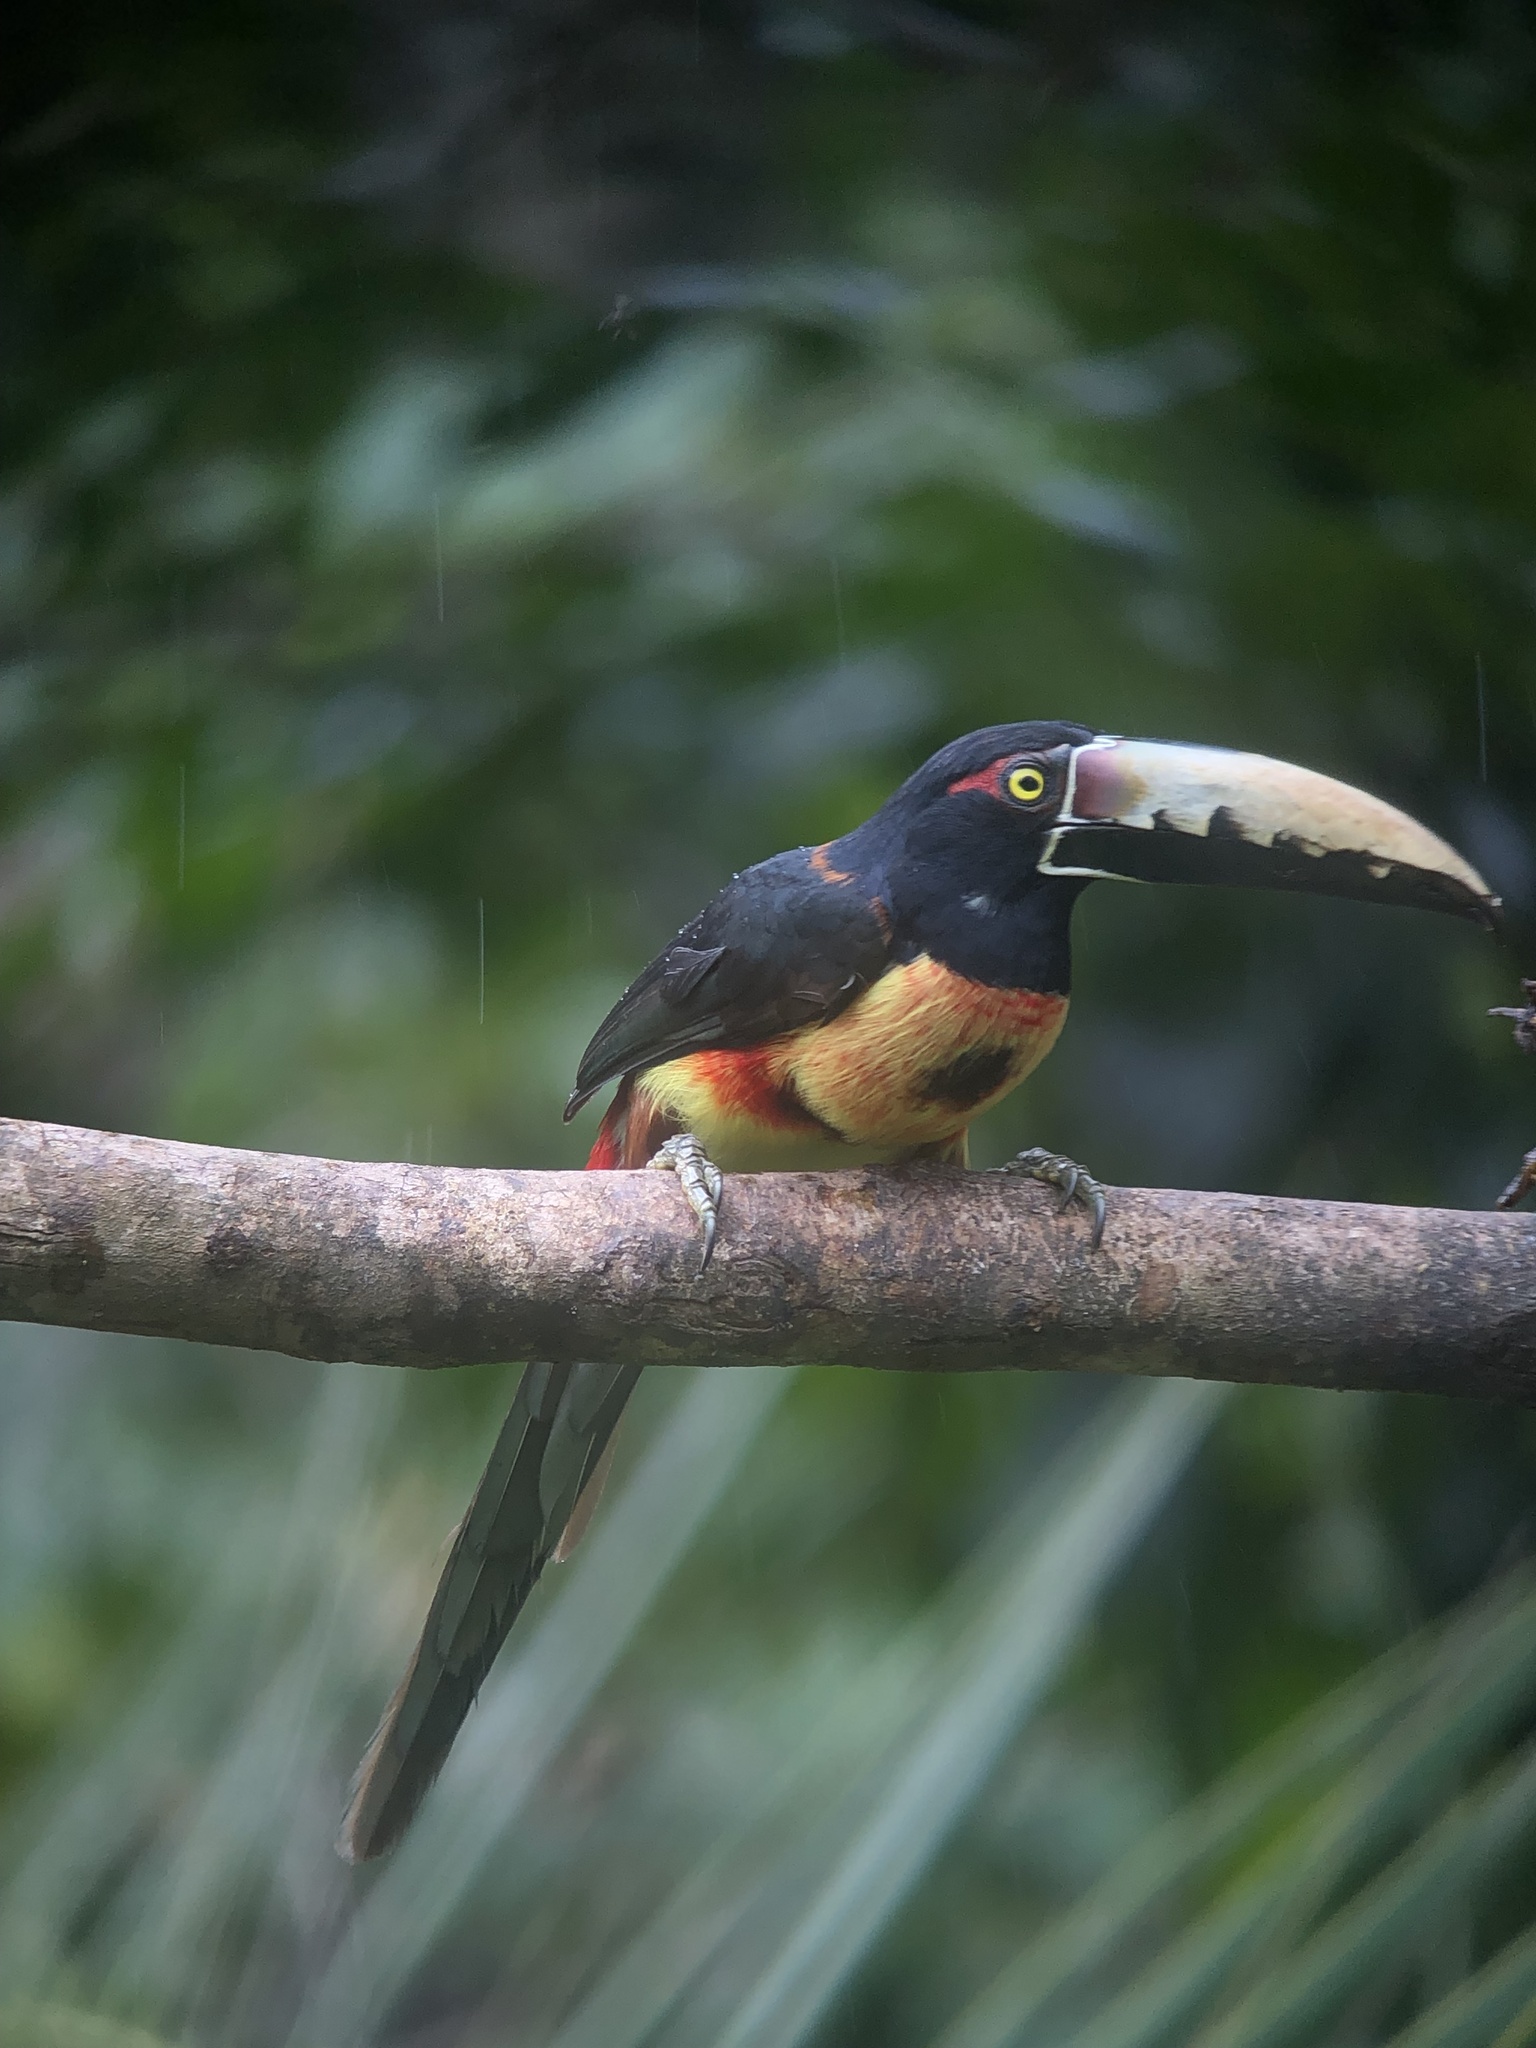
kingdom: Animalia
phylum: Chordata
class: Aves
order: Piciformes
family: Ramphastidae
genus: Pteroglossus
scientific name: Pteroglossus torquatus
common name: Collared aracari
